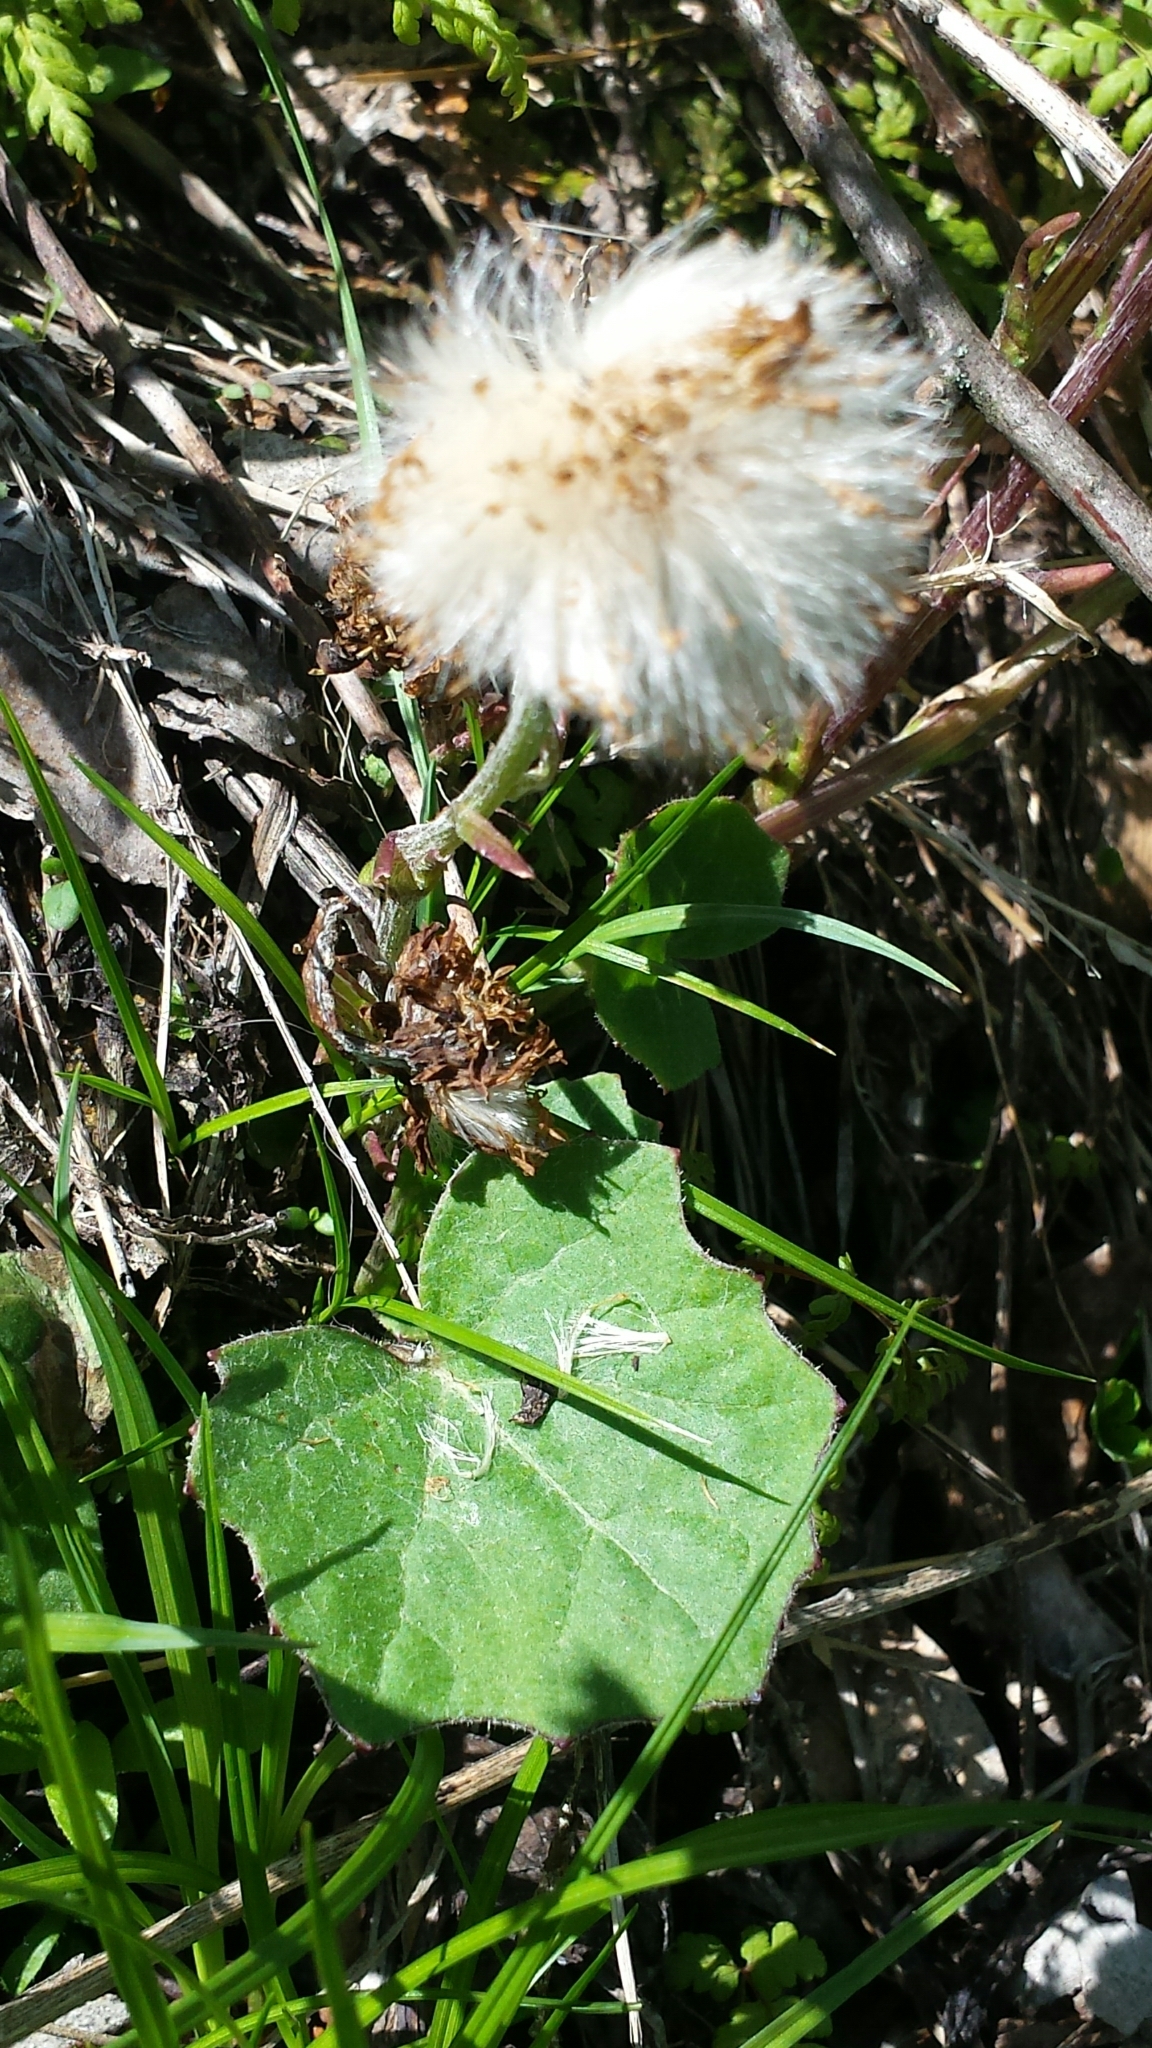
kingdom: Plantae
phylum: Tracheophyta
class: Magnoliopsida
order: Asterales
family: Asteraceae
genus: Tussilago
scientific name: Tussilago farfara
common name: Coltsfoot
